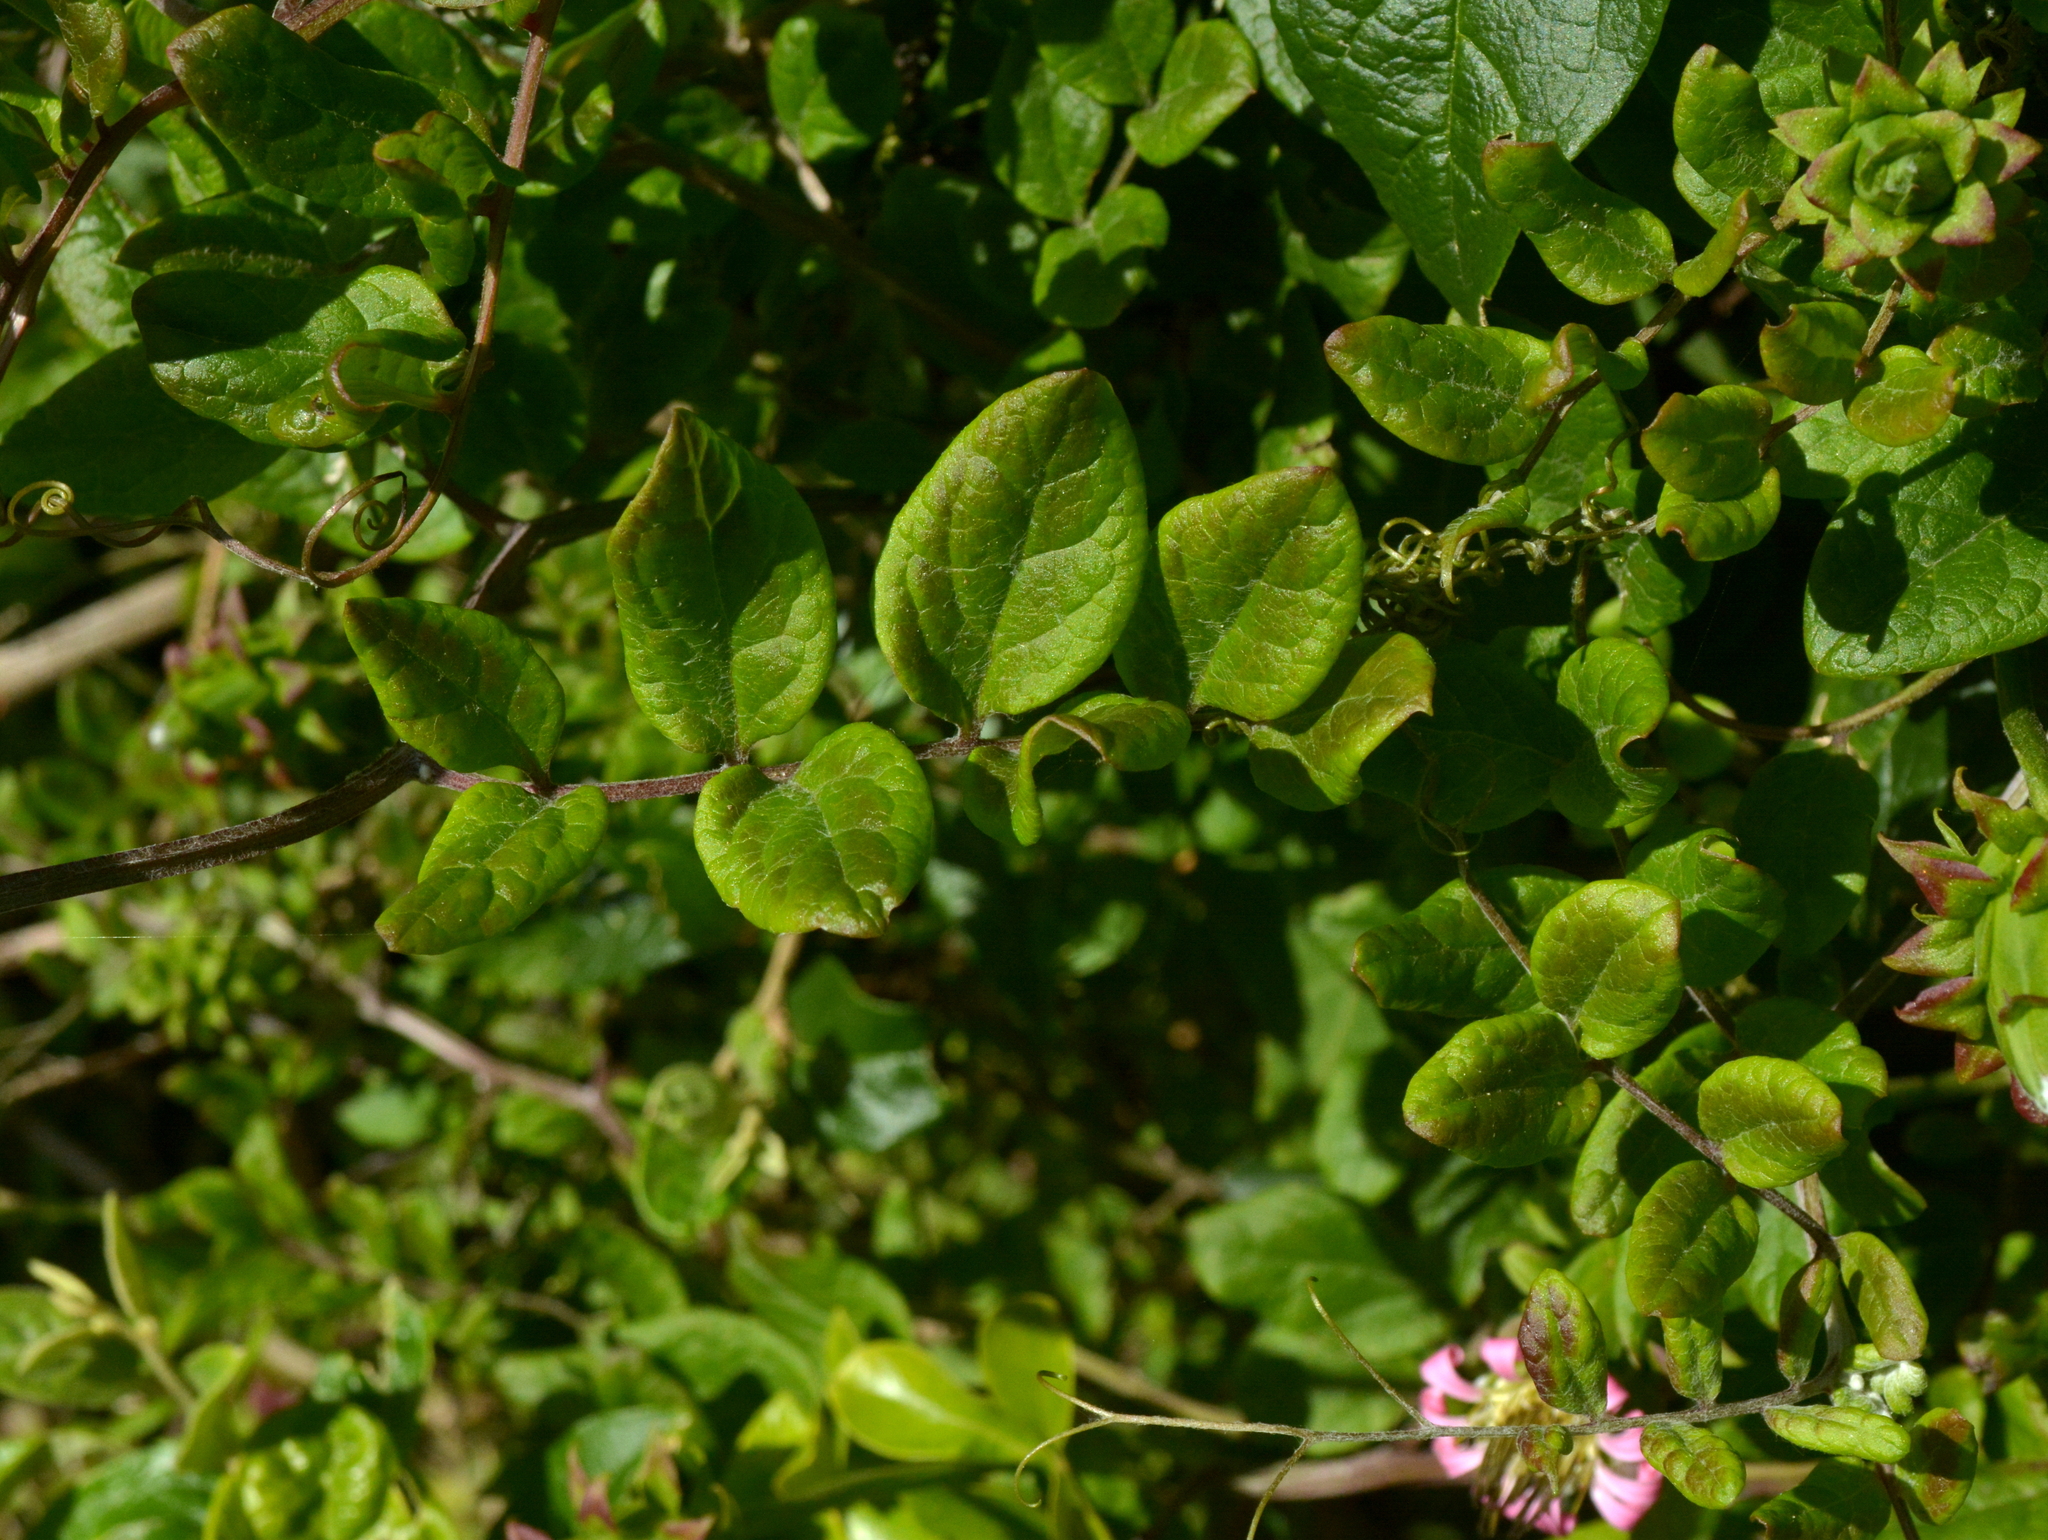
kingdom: Plantae
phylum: Tracheophyta
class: Magnoliopsida
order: Asterales
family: Asteraceae
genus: Mutisia
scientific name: Mutisia speciosa
